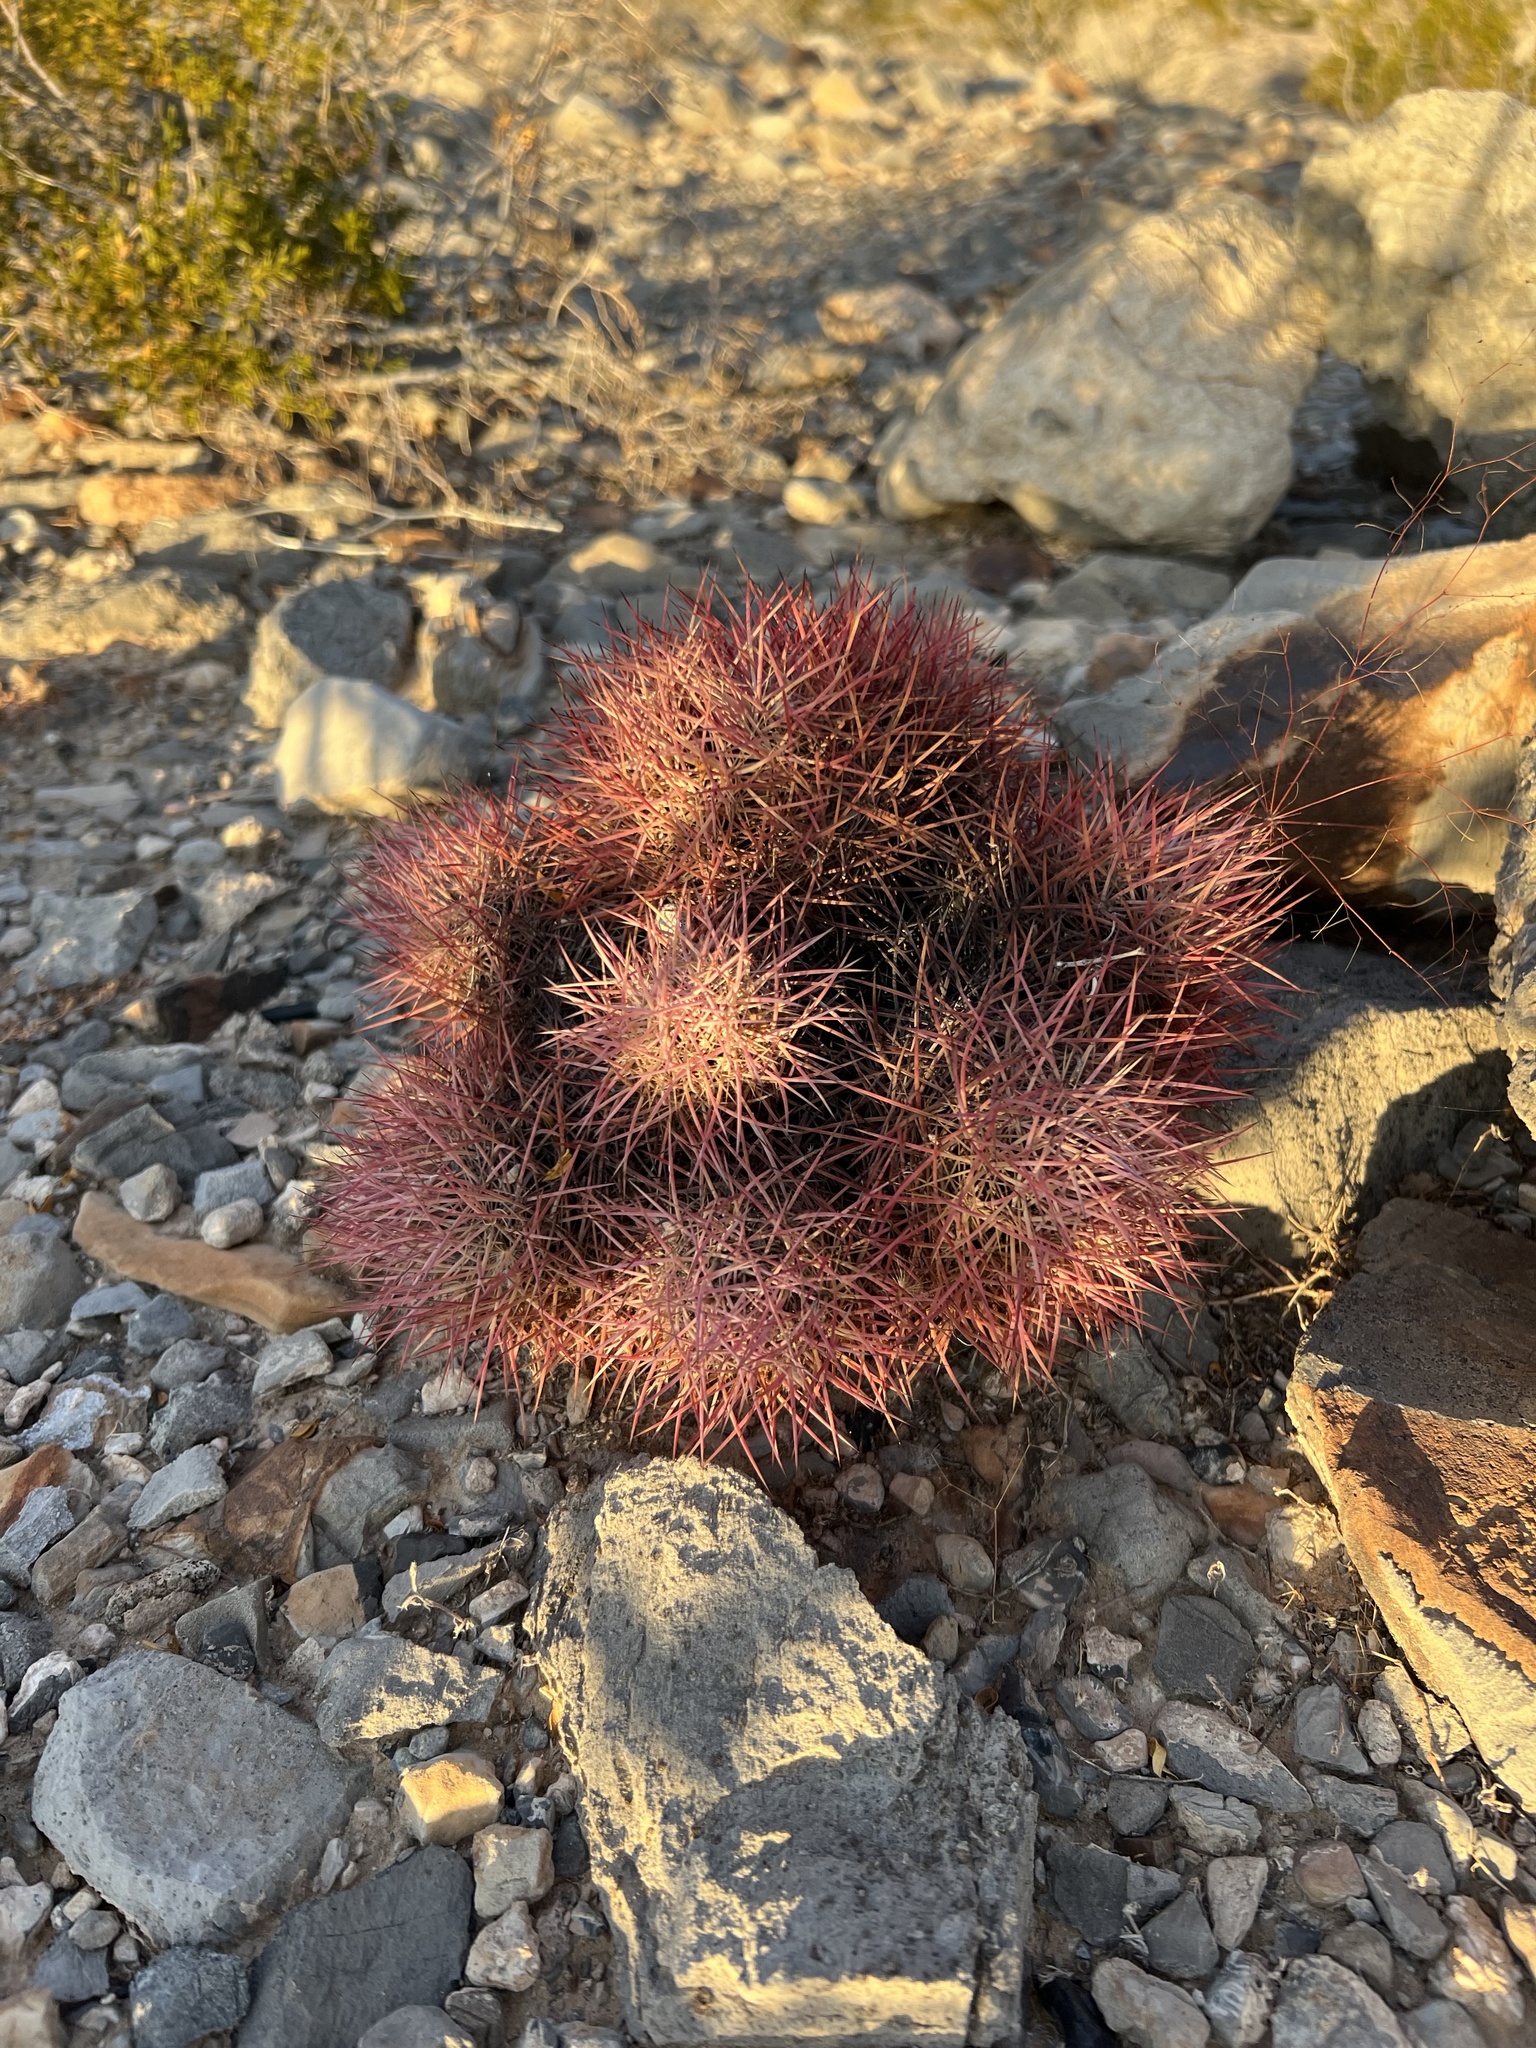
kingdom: Plantae
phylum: Tracheophyta
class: Magnoliopsida
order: Caryophyllales
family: Cactaceae
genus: Sclerocactus
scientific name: Sclerocactus johnsonii
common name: Eight-spine fishhook cactus
